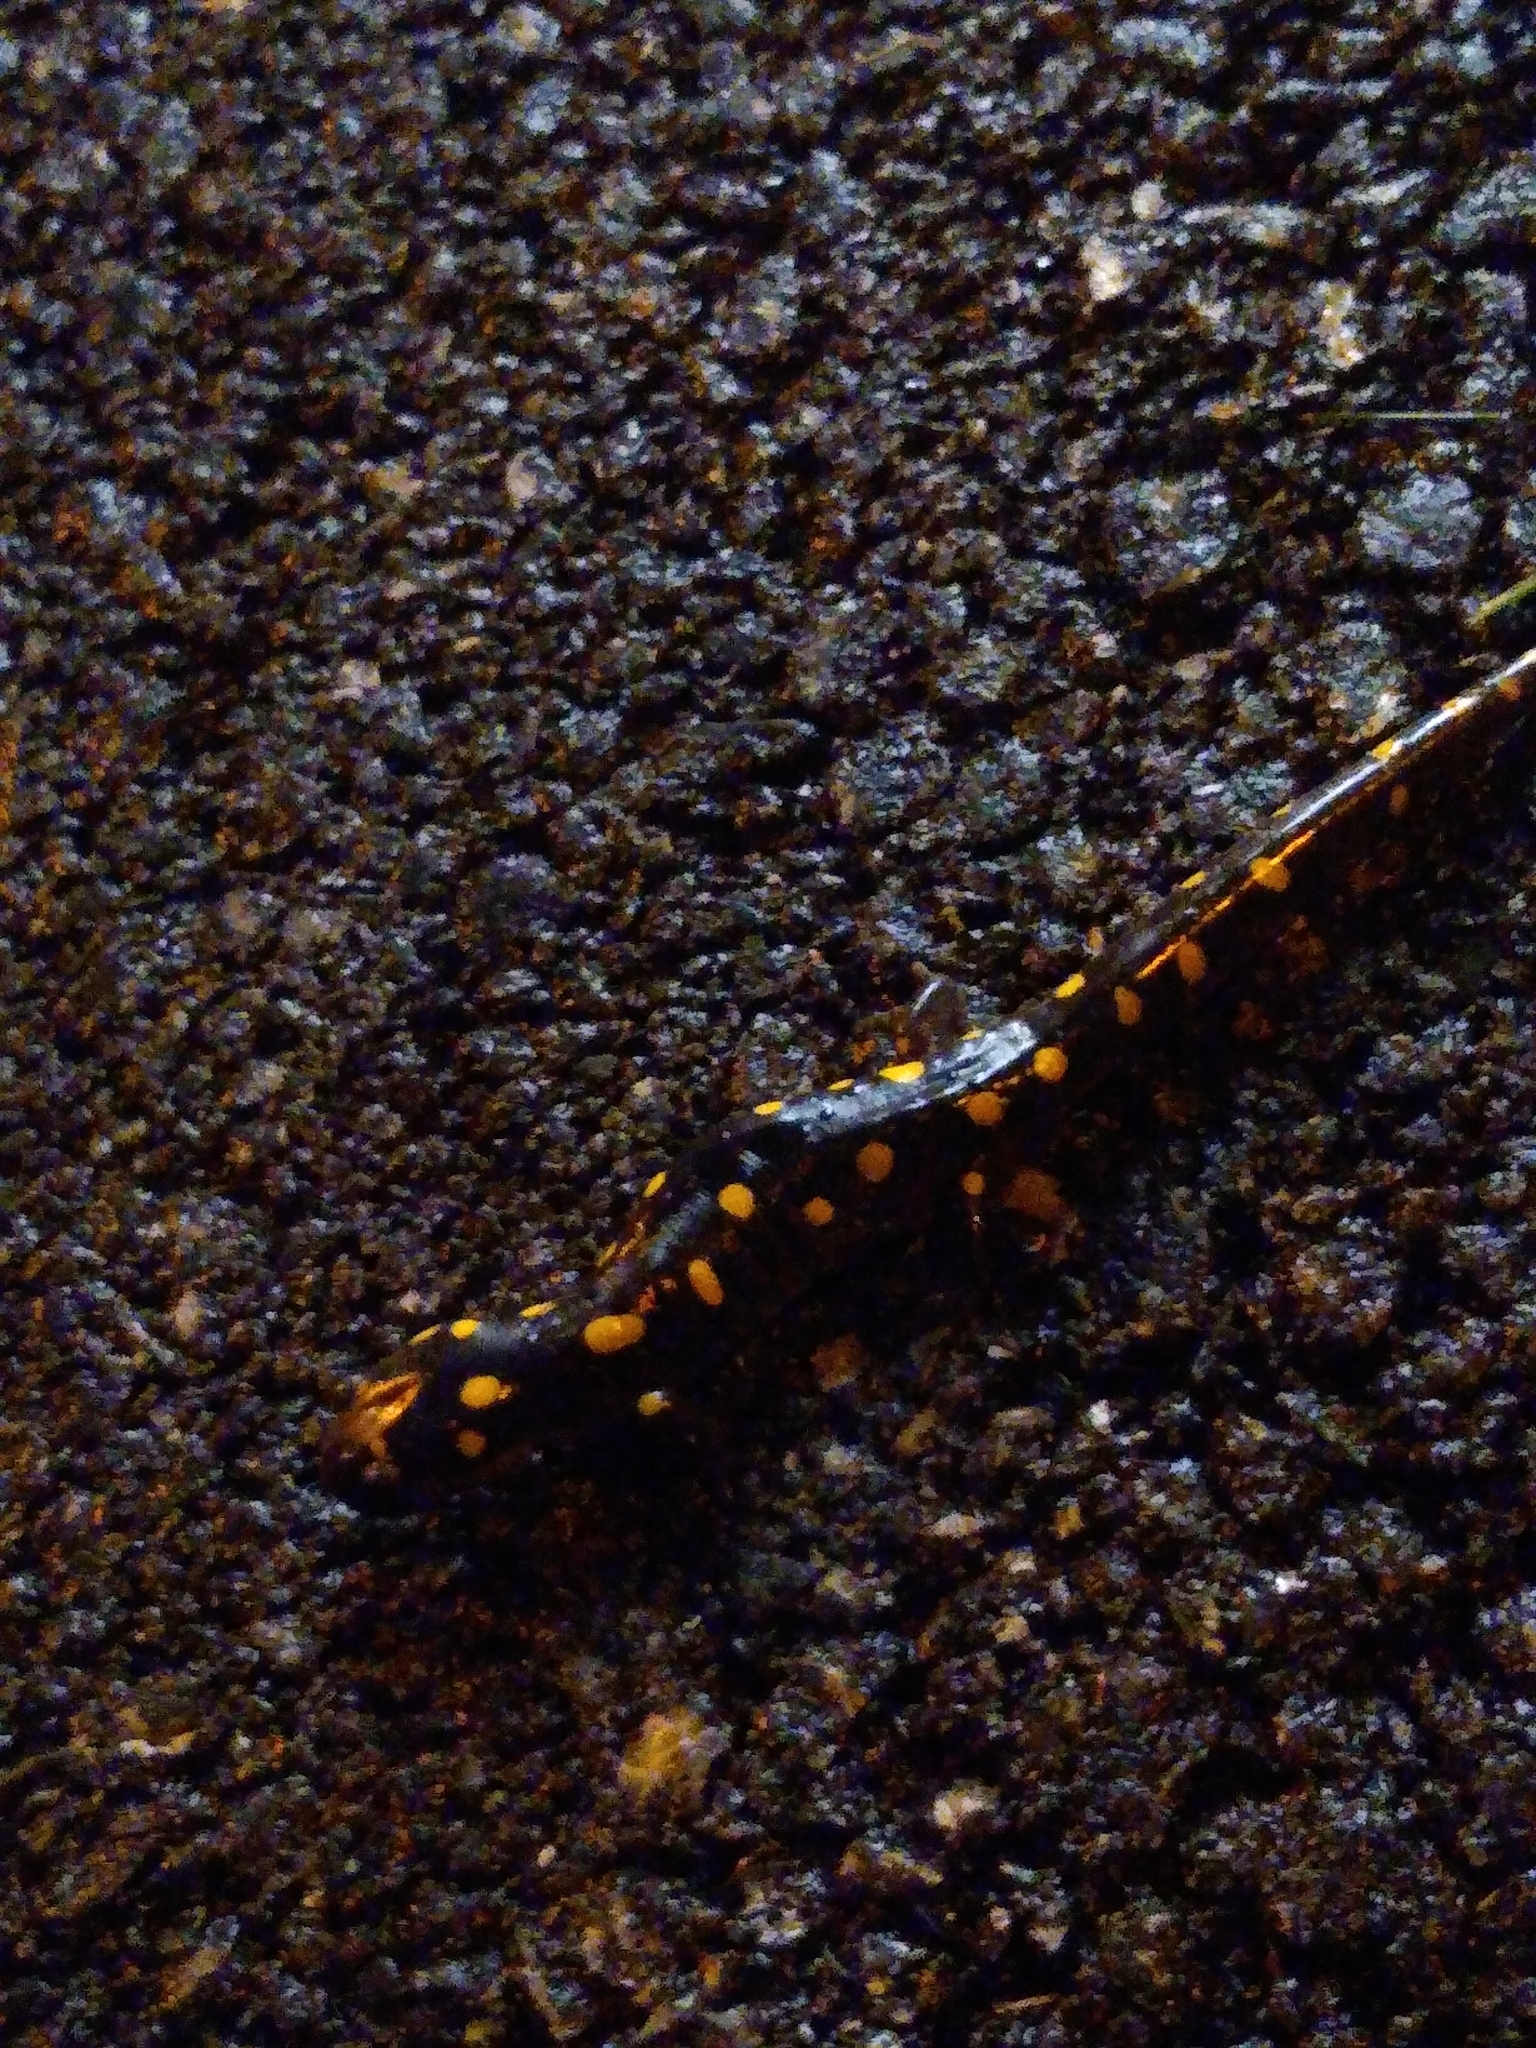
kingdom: Animalia
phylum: Chordata
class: Amphibia
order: Caudata
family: Ambystomatidae
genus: Ambystoma
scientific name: Ambystoma maculatum
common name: Spotted salamander
